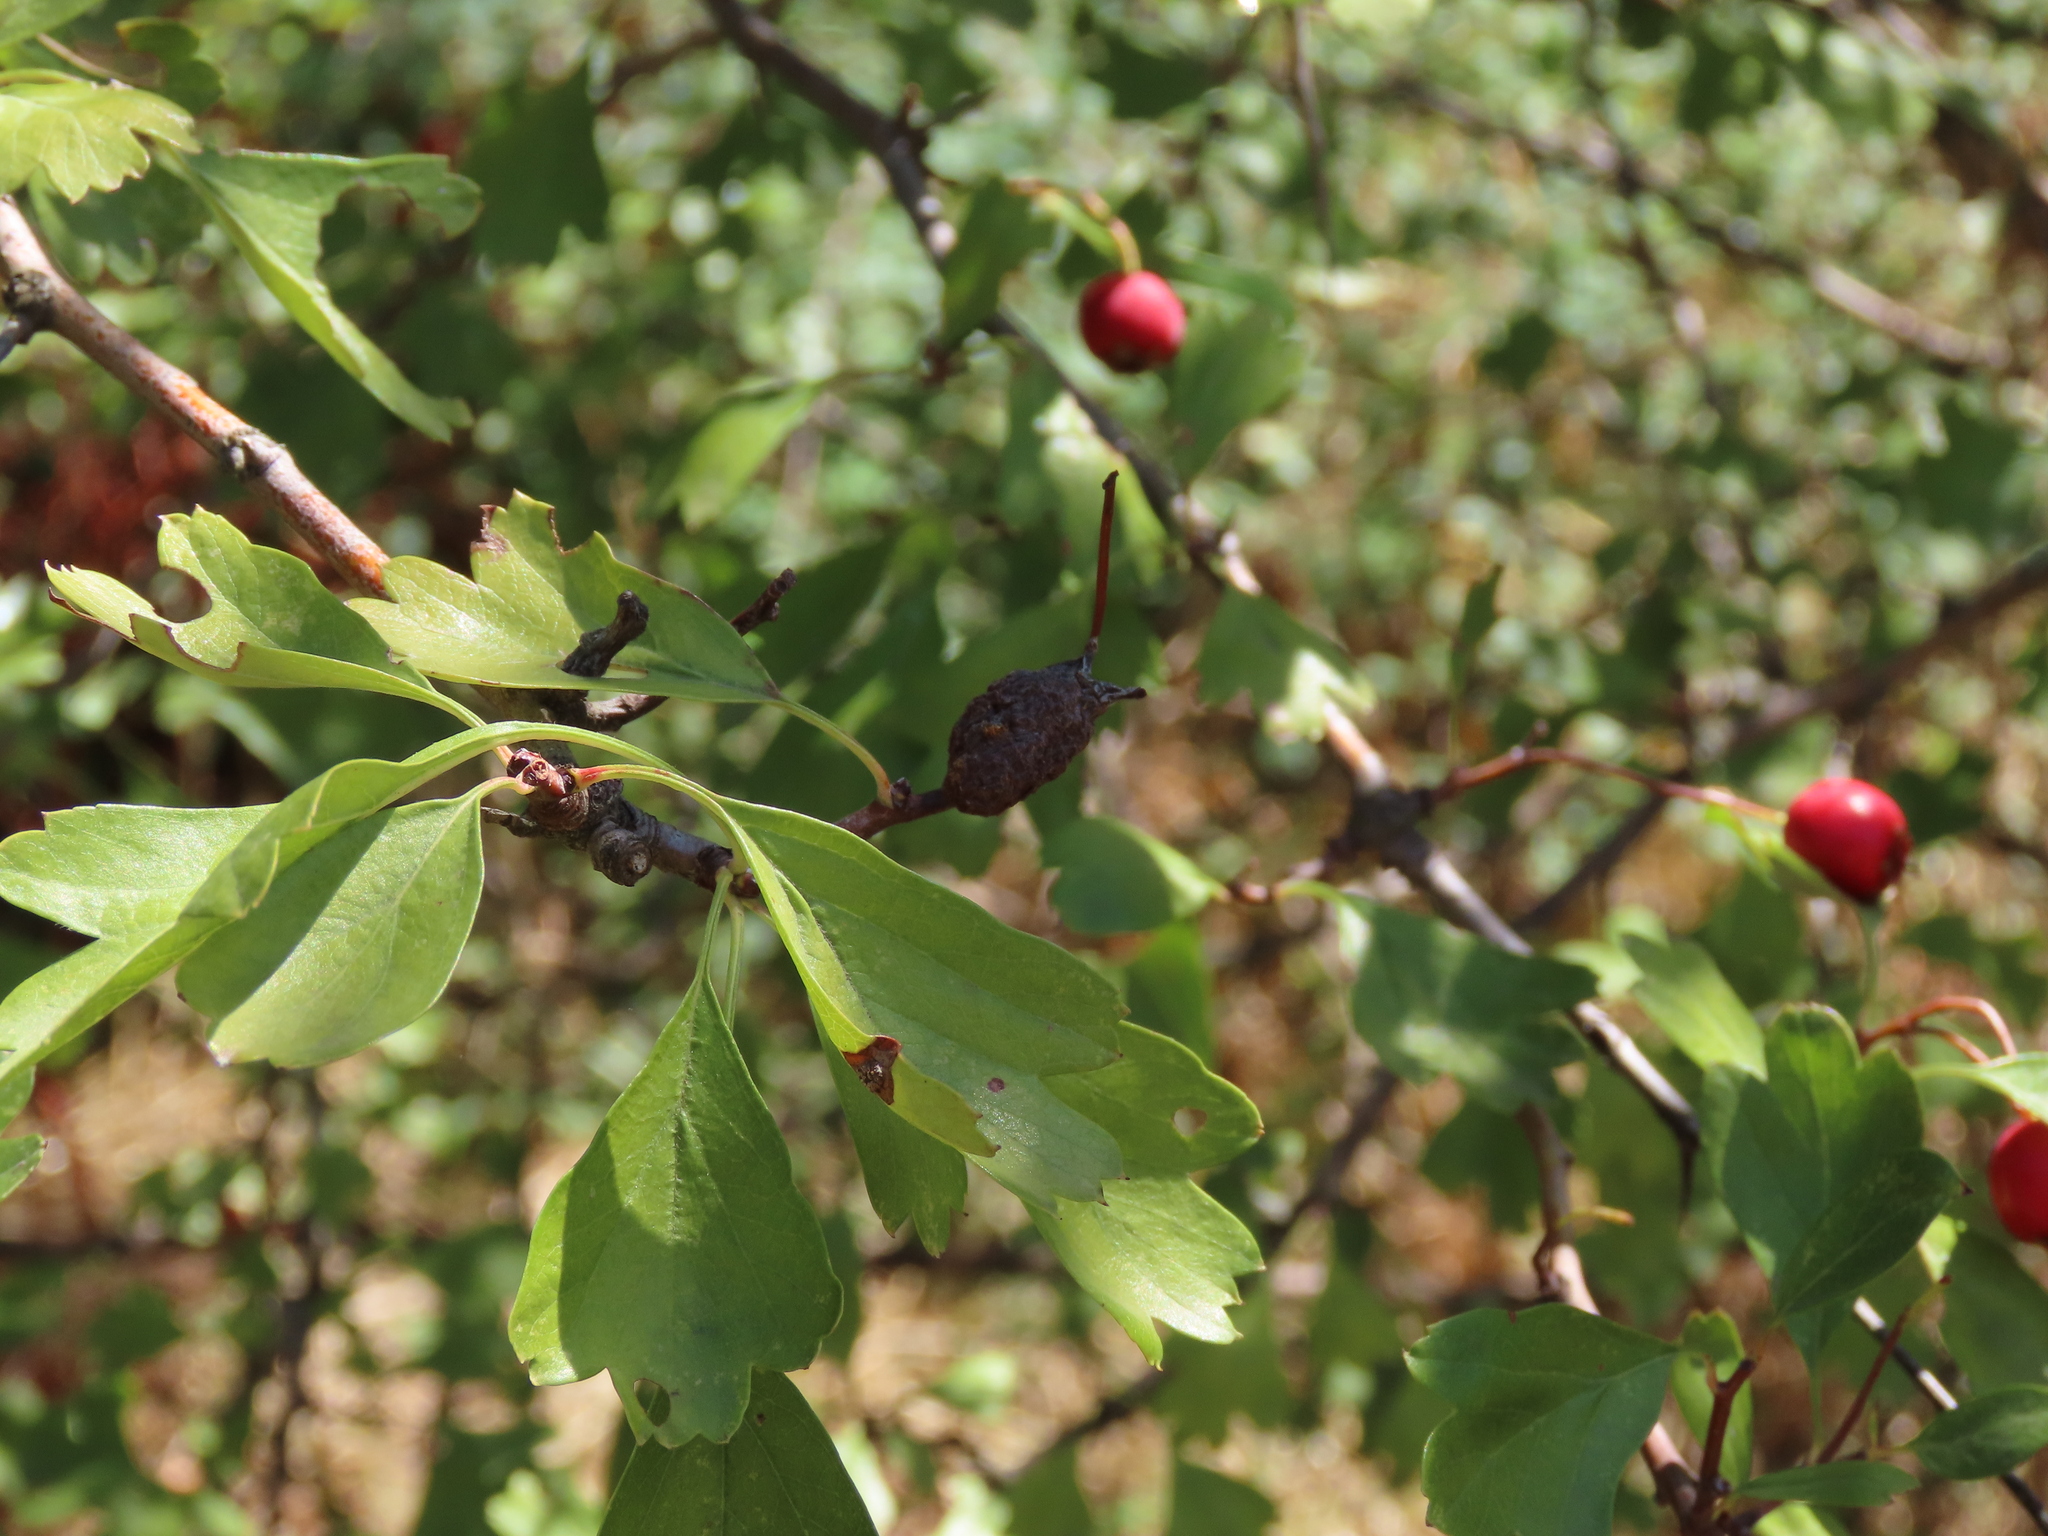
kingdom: Plantae
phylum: Tracheophyta
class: Magnoliopsida
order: Rosales
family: Rosaceae
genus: Crataegus
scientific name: Crataegus monogyna
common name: Hawthorn
